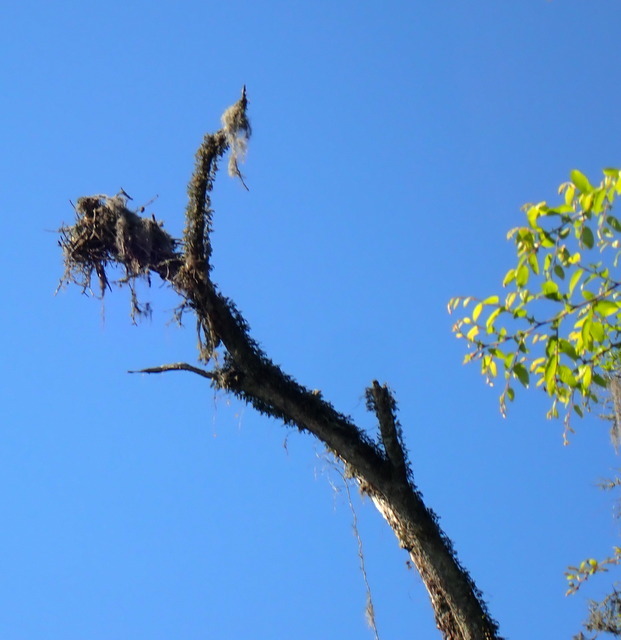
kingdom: Animalia
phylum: Chordata
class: Aves
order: Accipitriformes
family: Pandionidae
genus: Pandion
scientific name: Pandion haliaetus
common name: Osprey
